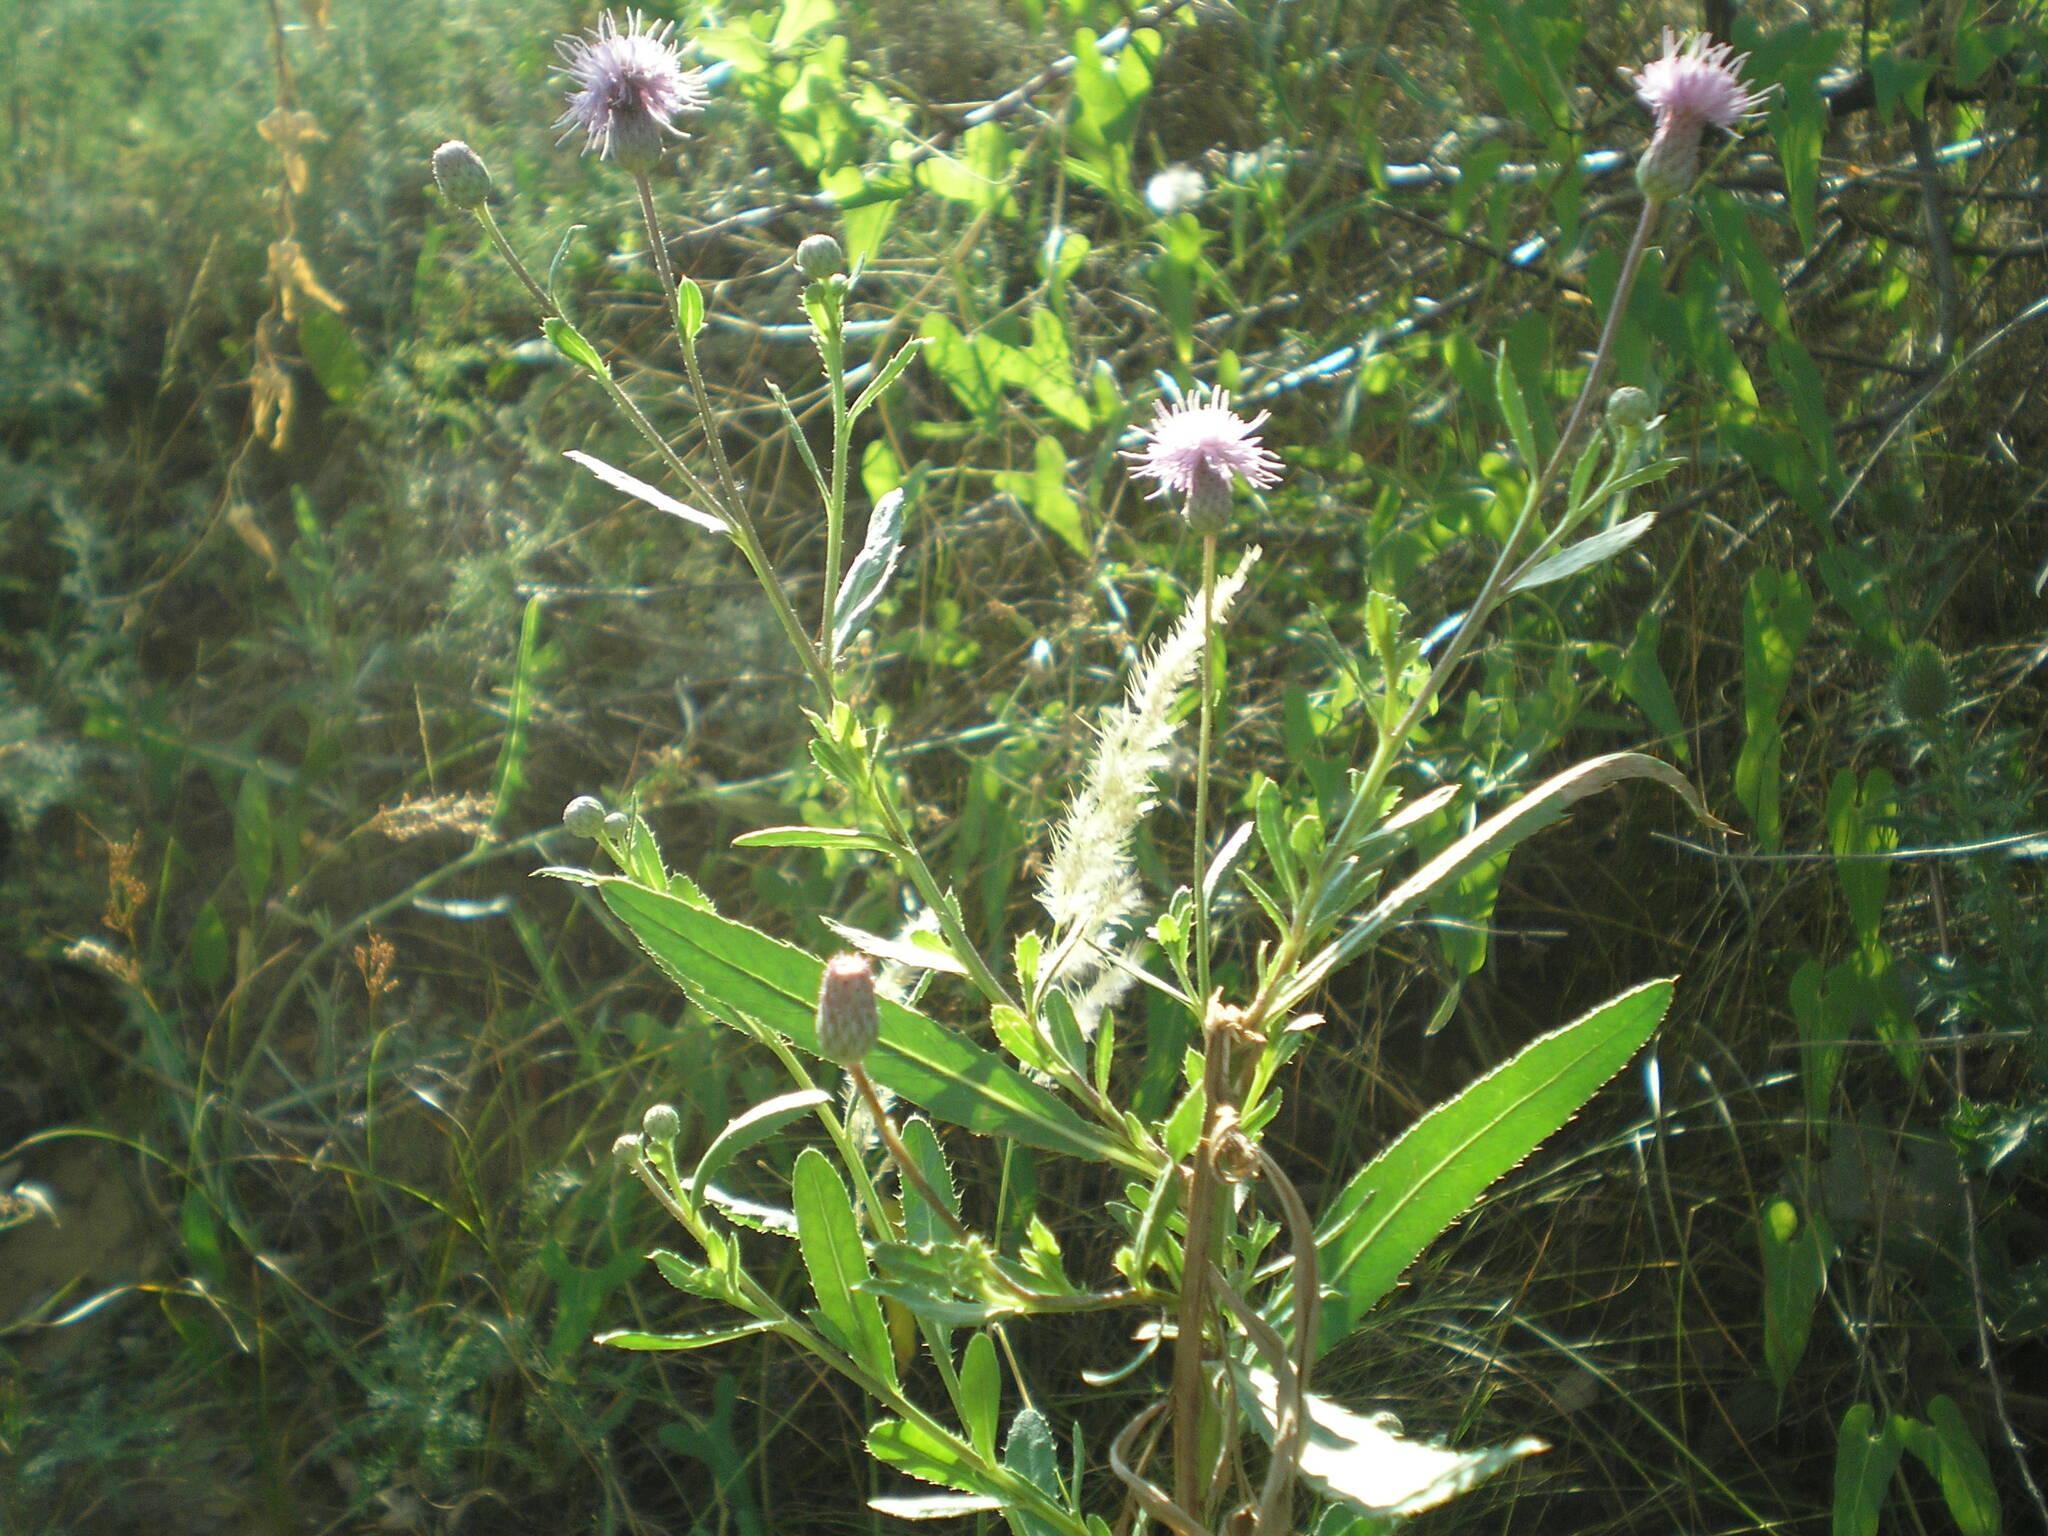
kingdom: Plantae
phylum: Tracheophyta
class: Magnoliopsida
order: Asterales
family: Asteraceae
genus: Cirsium
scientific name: Cirsium arvense
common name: Creeping thistle
